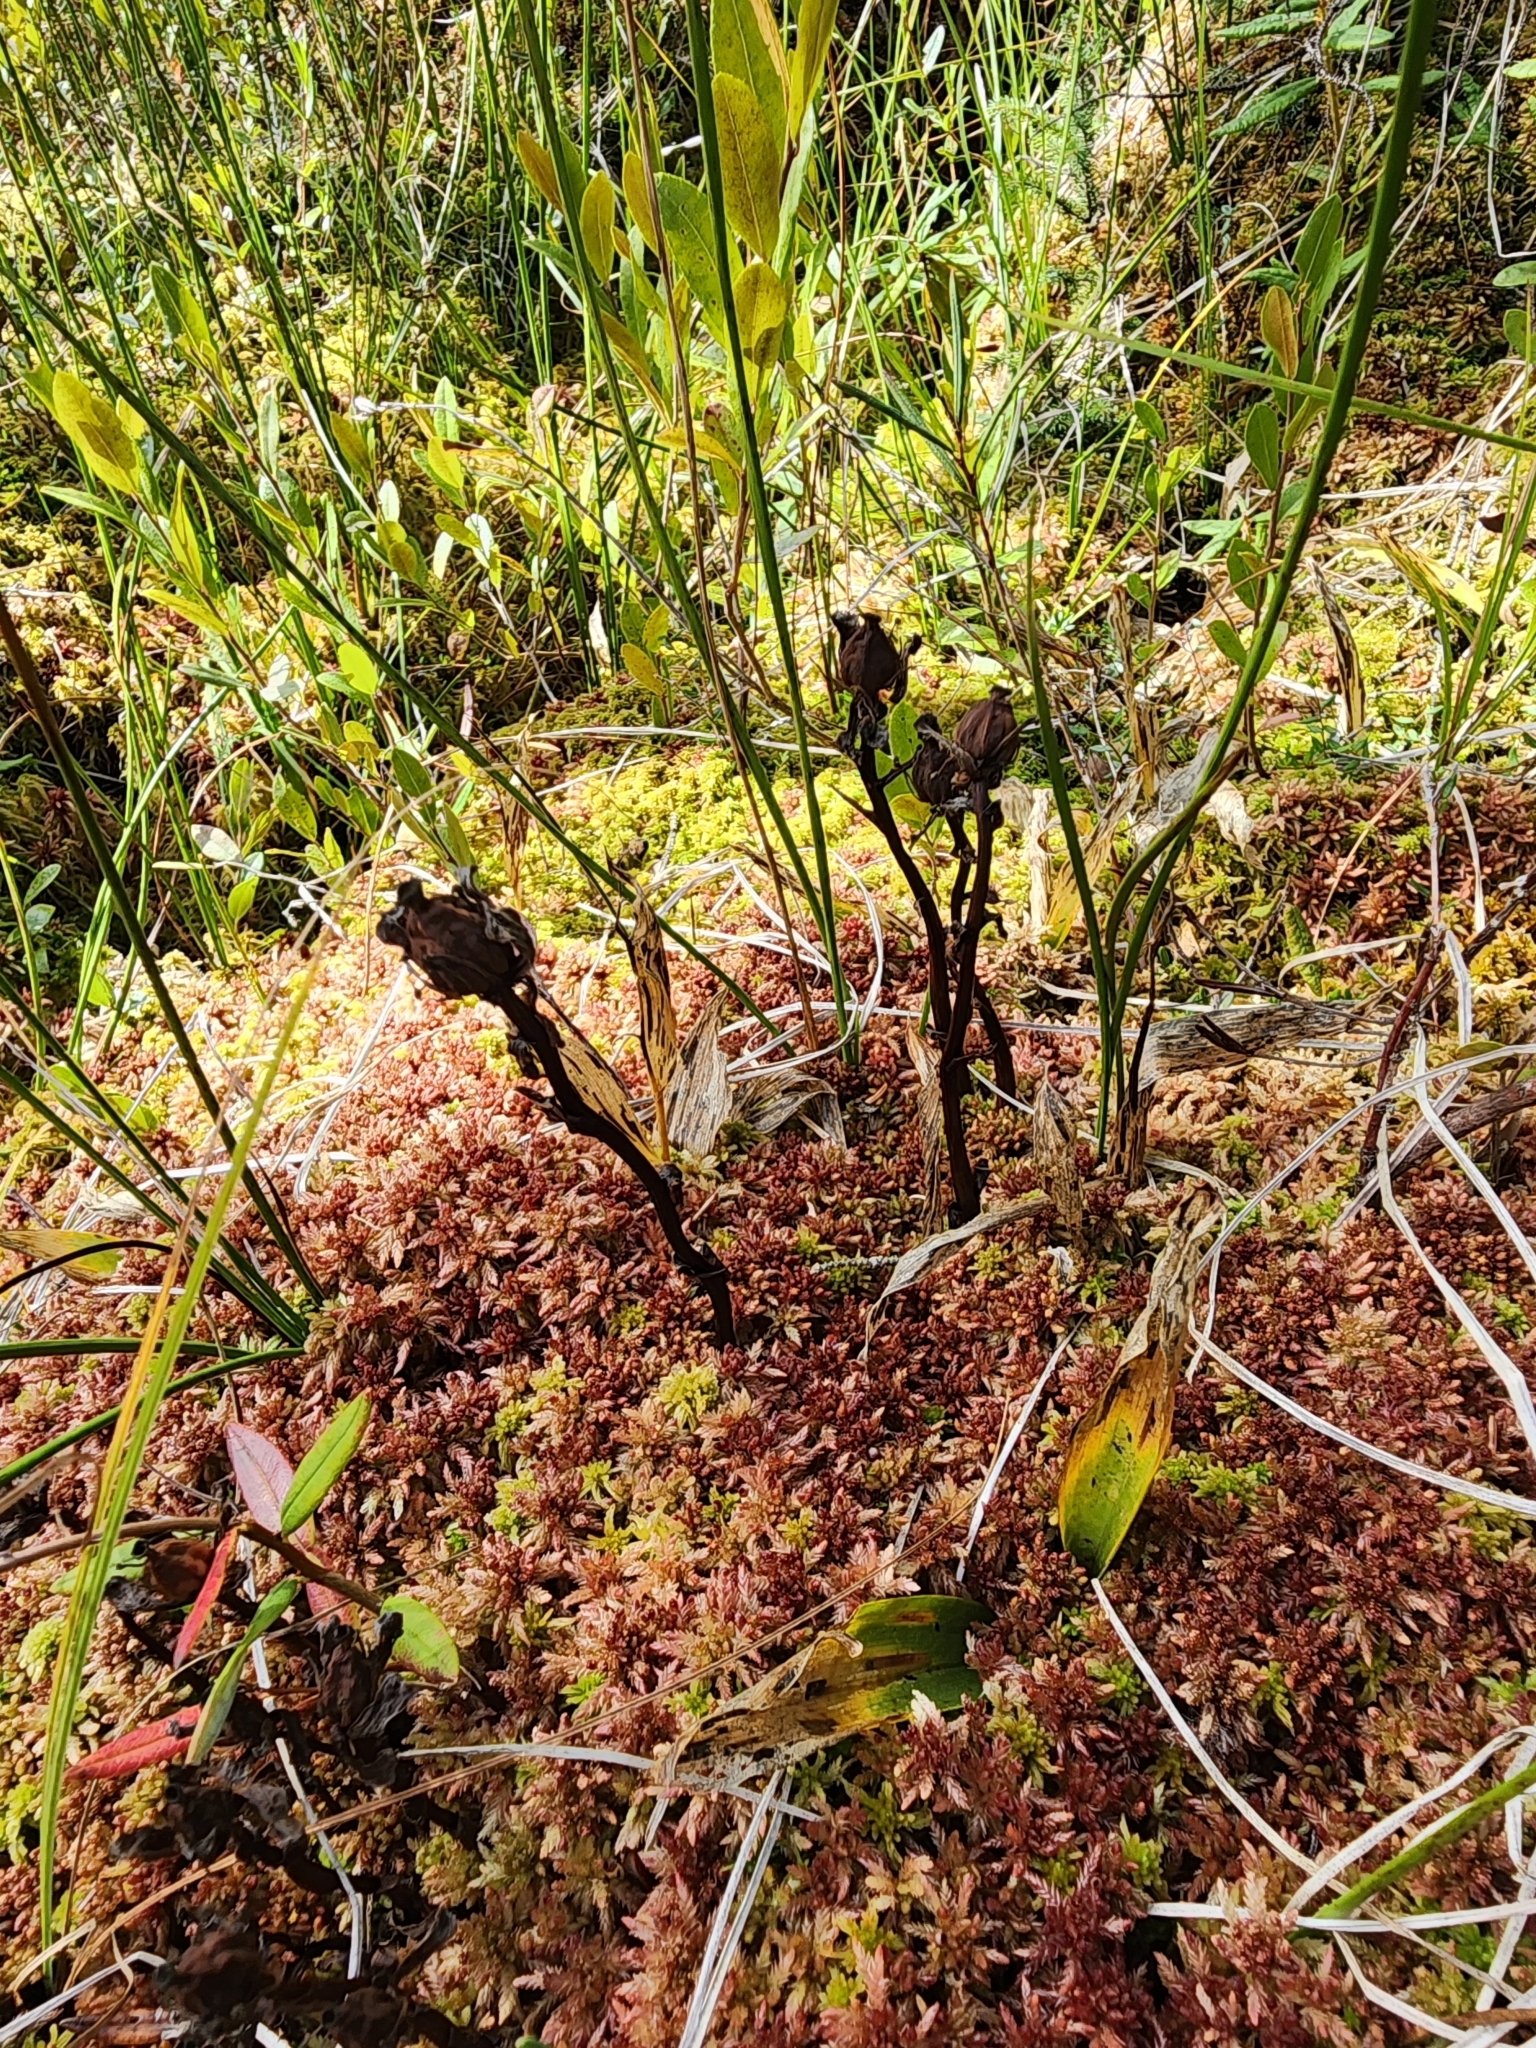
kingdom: Plantae
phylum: Tracheophyta
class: Magnoliopsida
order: Ericales
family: Ericaceae
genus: Monotropa
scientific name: Monotropa uniflora
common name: Convulsion root
